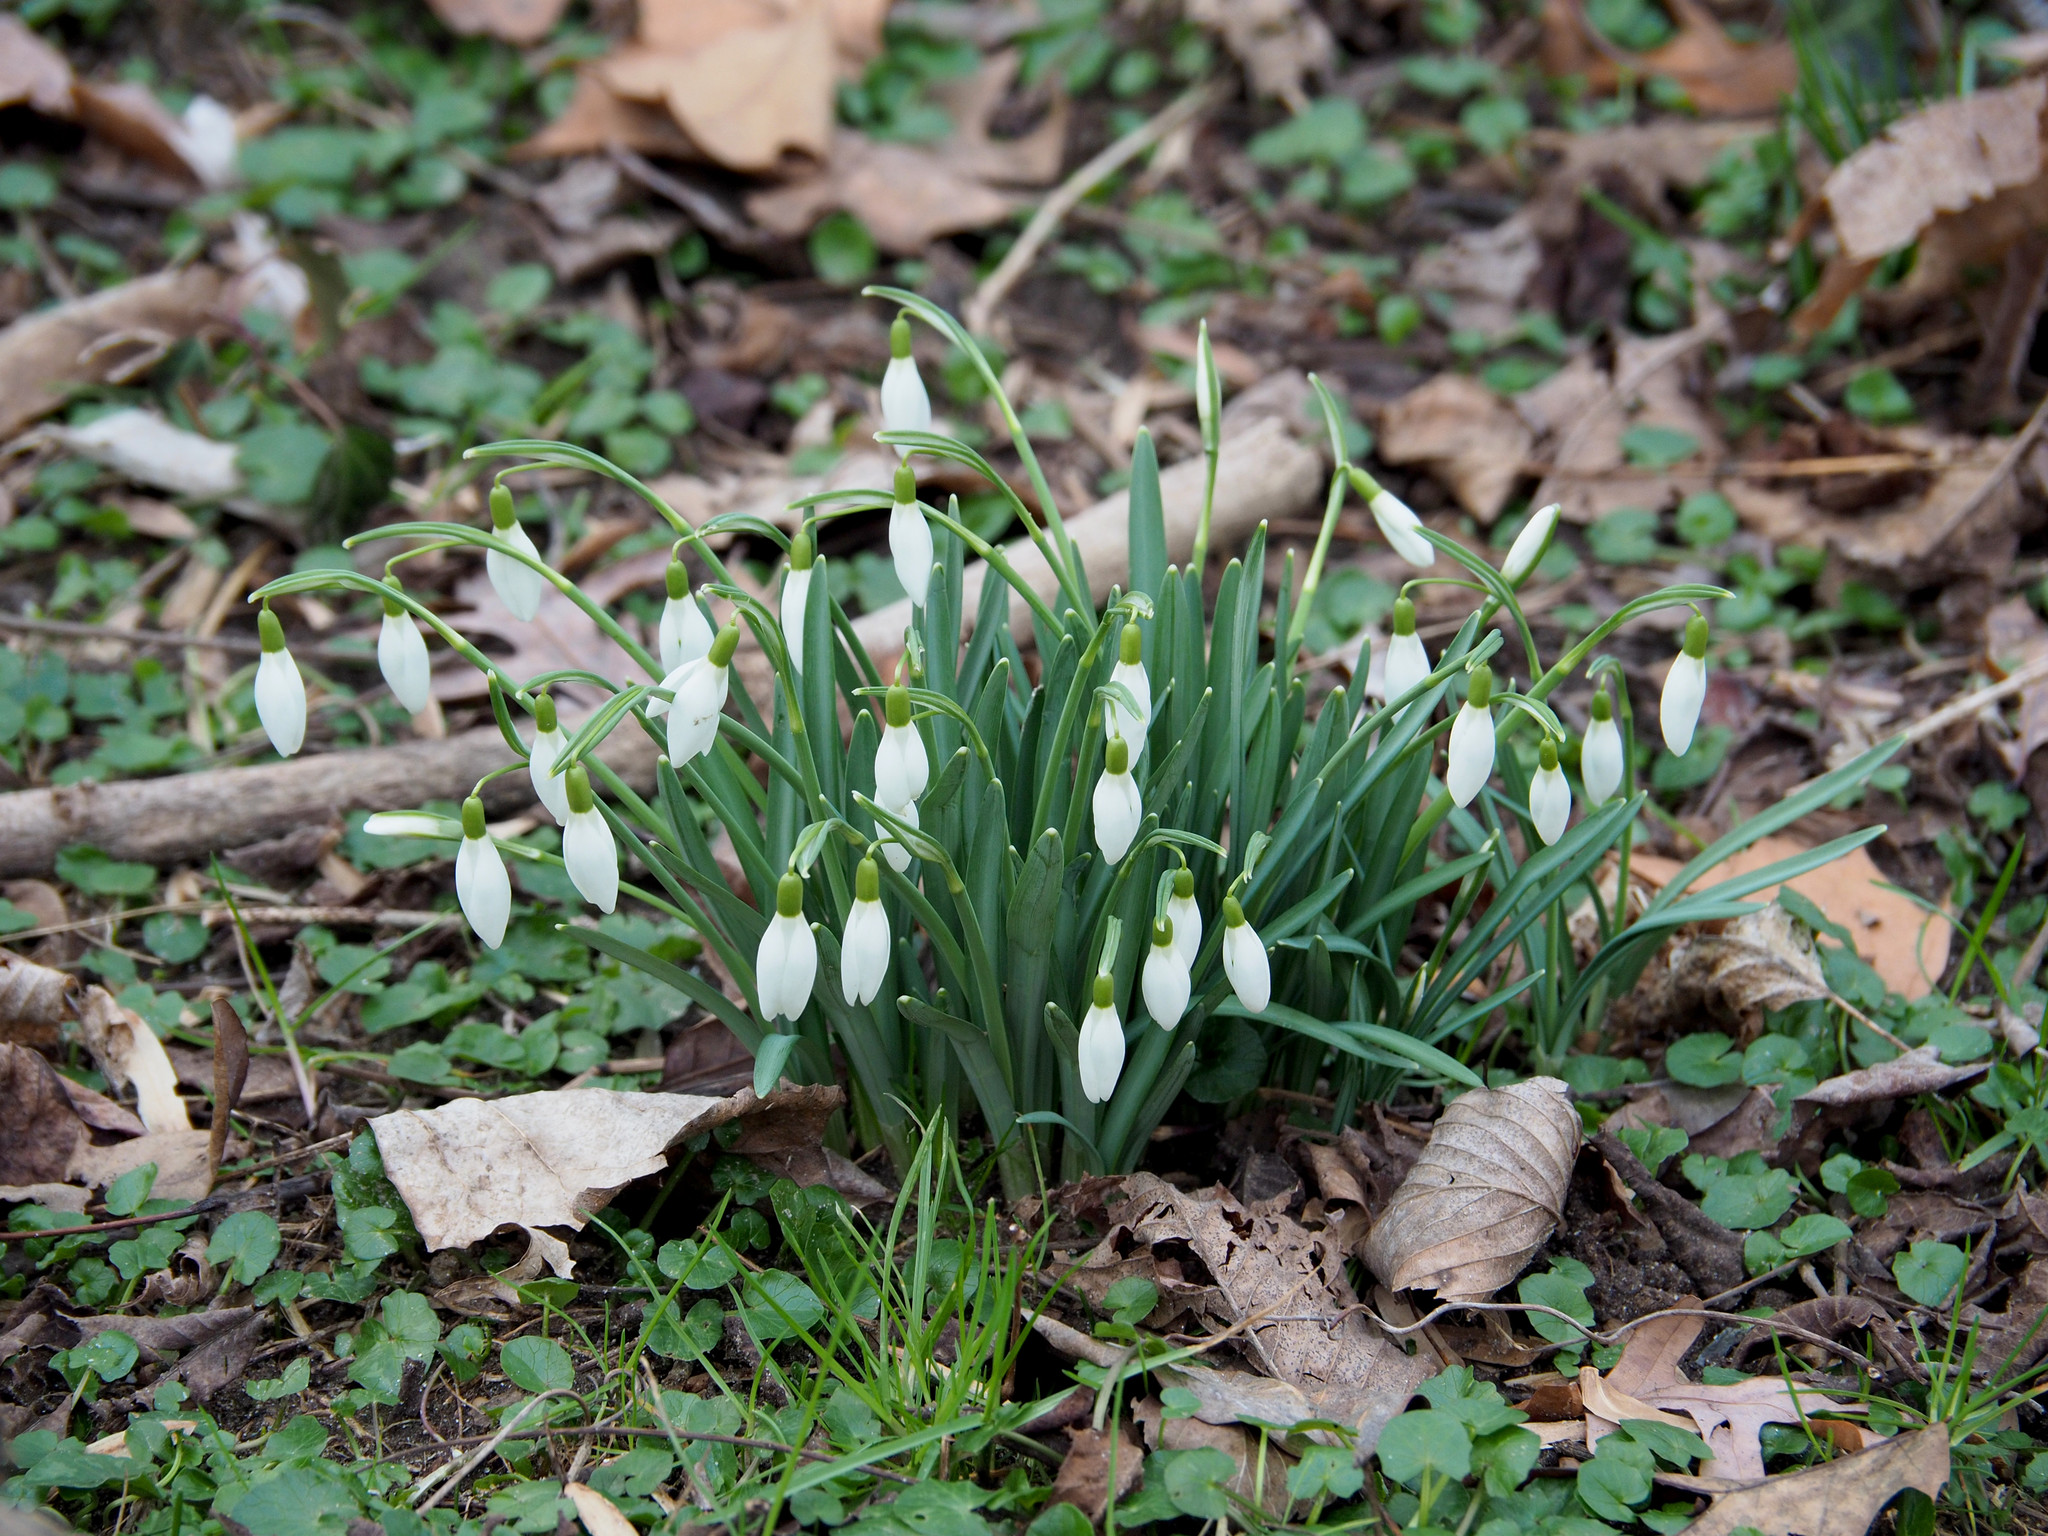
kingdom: Plantae
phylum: Tracheophyta
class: Liliopsida
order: Asparagales
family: Amaryllidaceae
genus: Galanthus
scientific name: Galanthus nivalis
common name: Snowdrop
